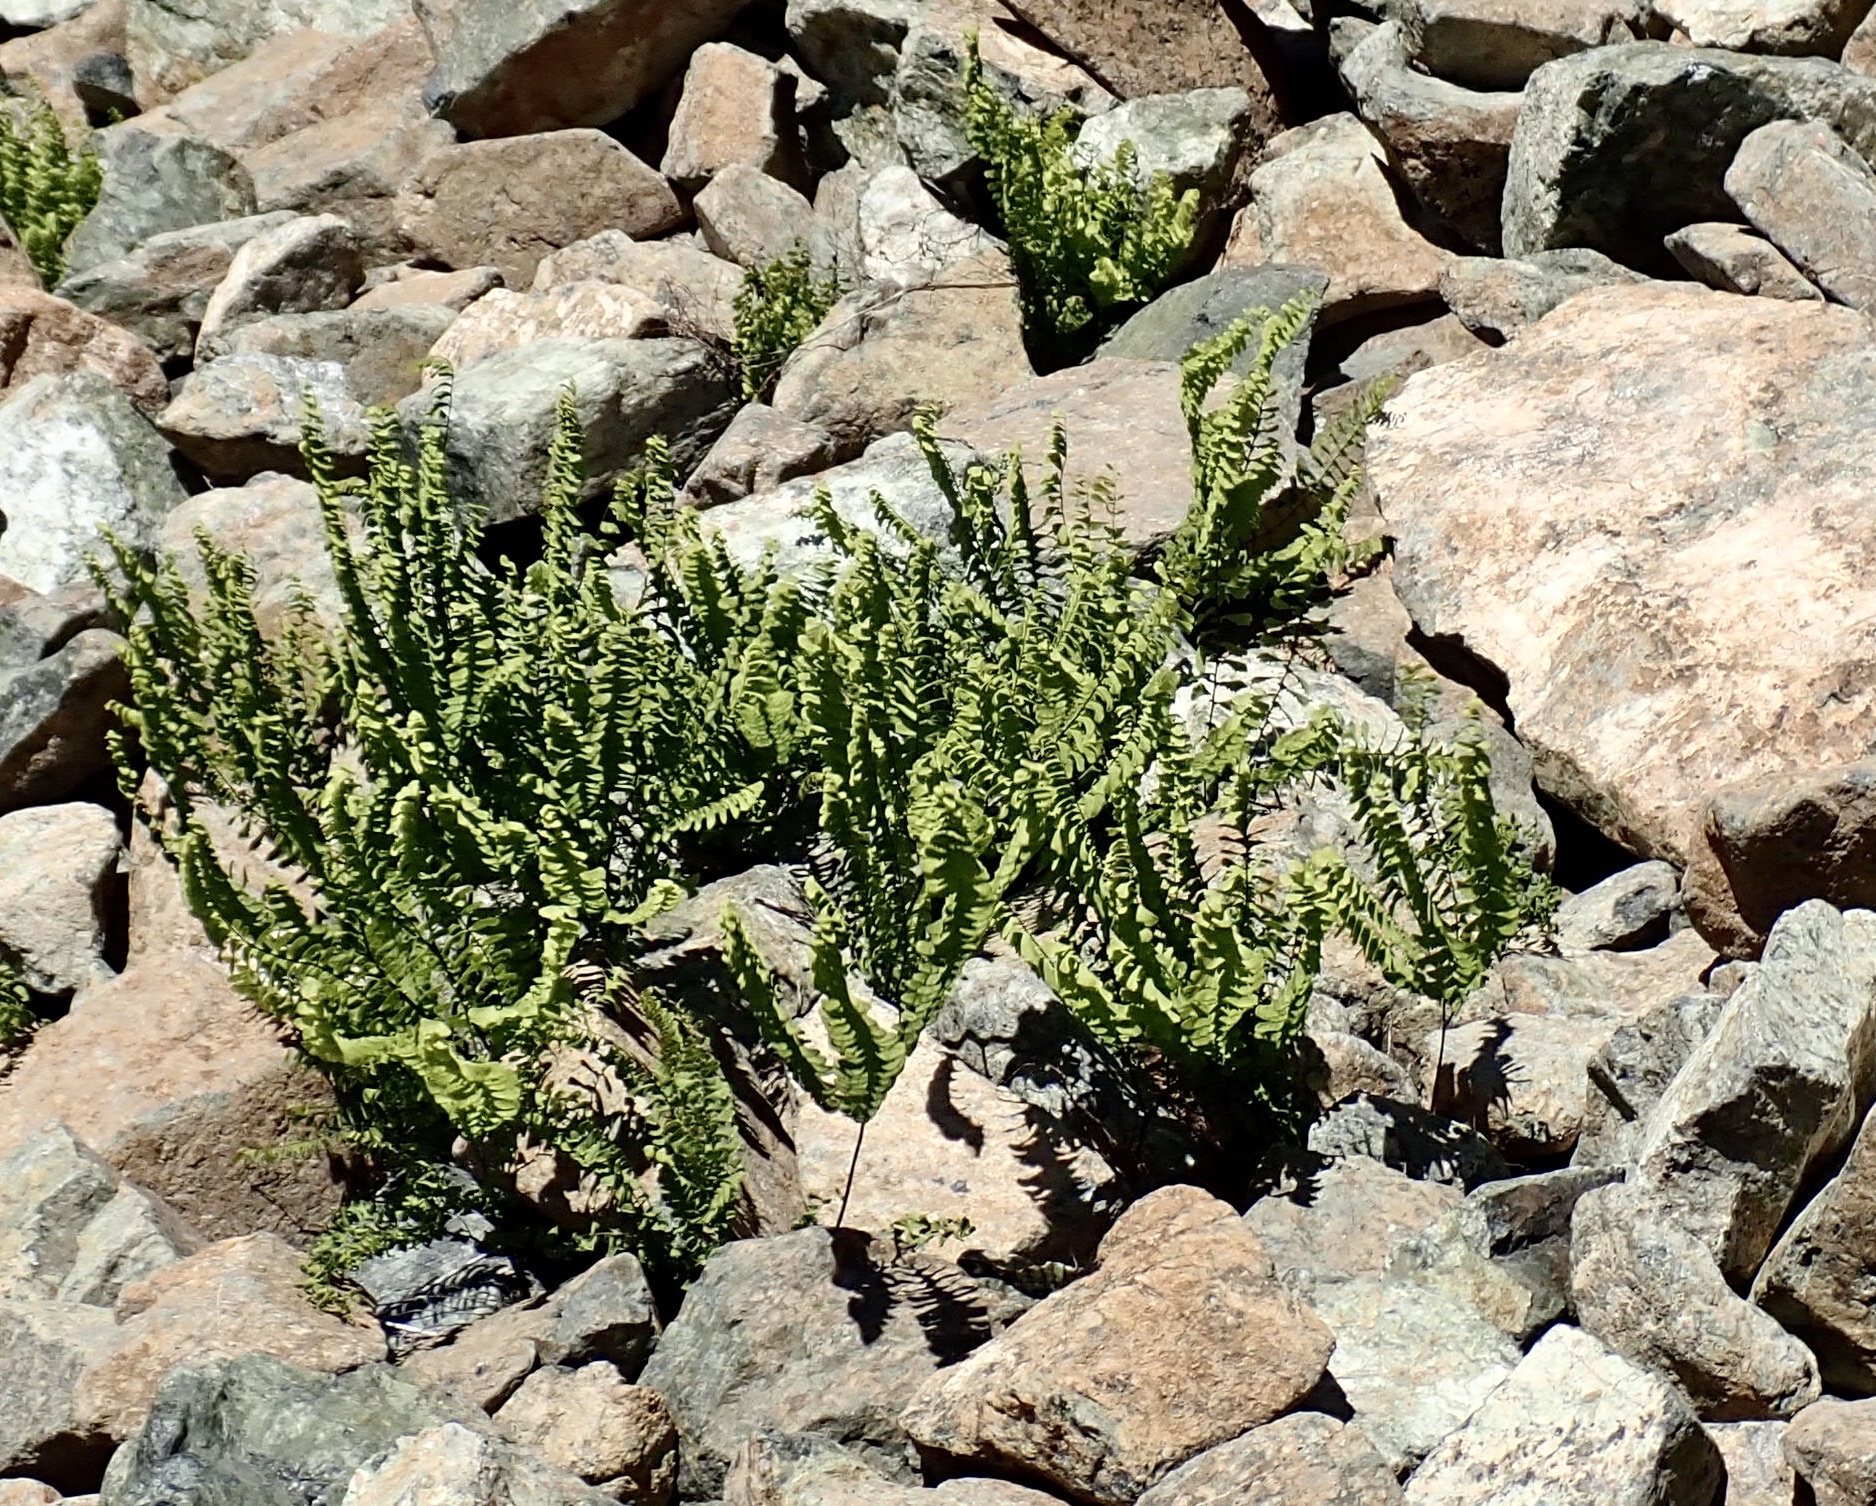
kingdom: Plantae
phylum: Tracheophyta
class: Polypodiopsida
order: Polypodiales
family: Pteridaceae
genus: Adiantum
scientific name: Adiantum aleuticum
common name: Aleutian maidenhair fern
